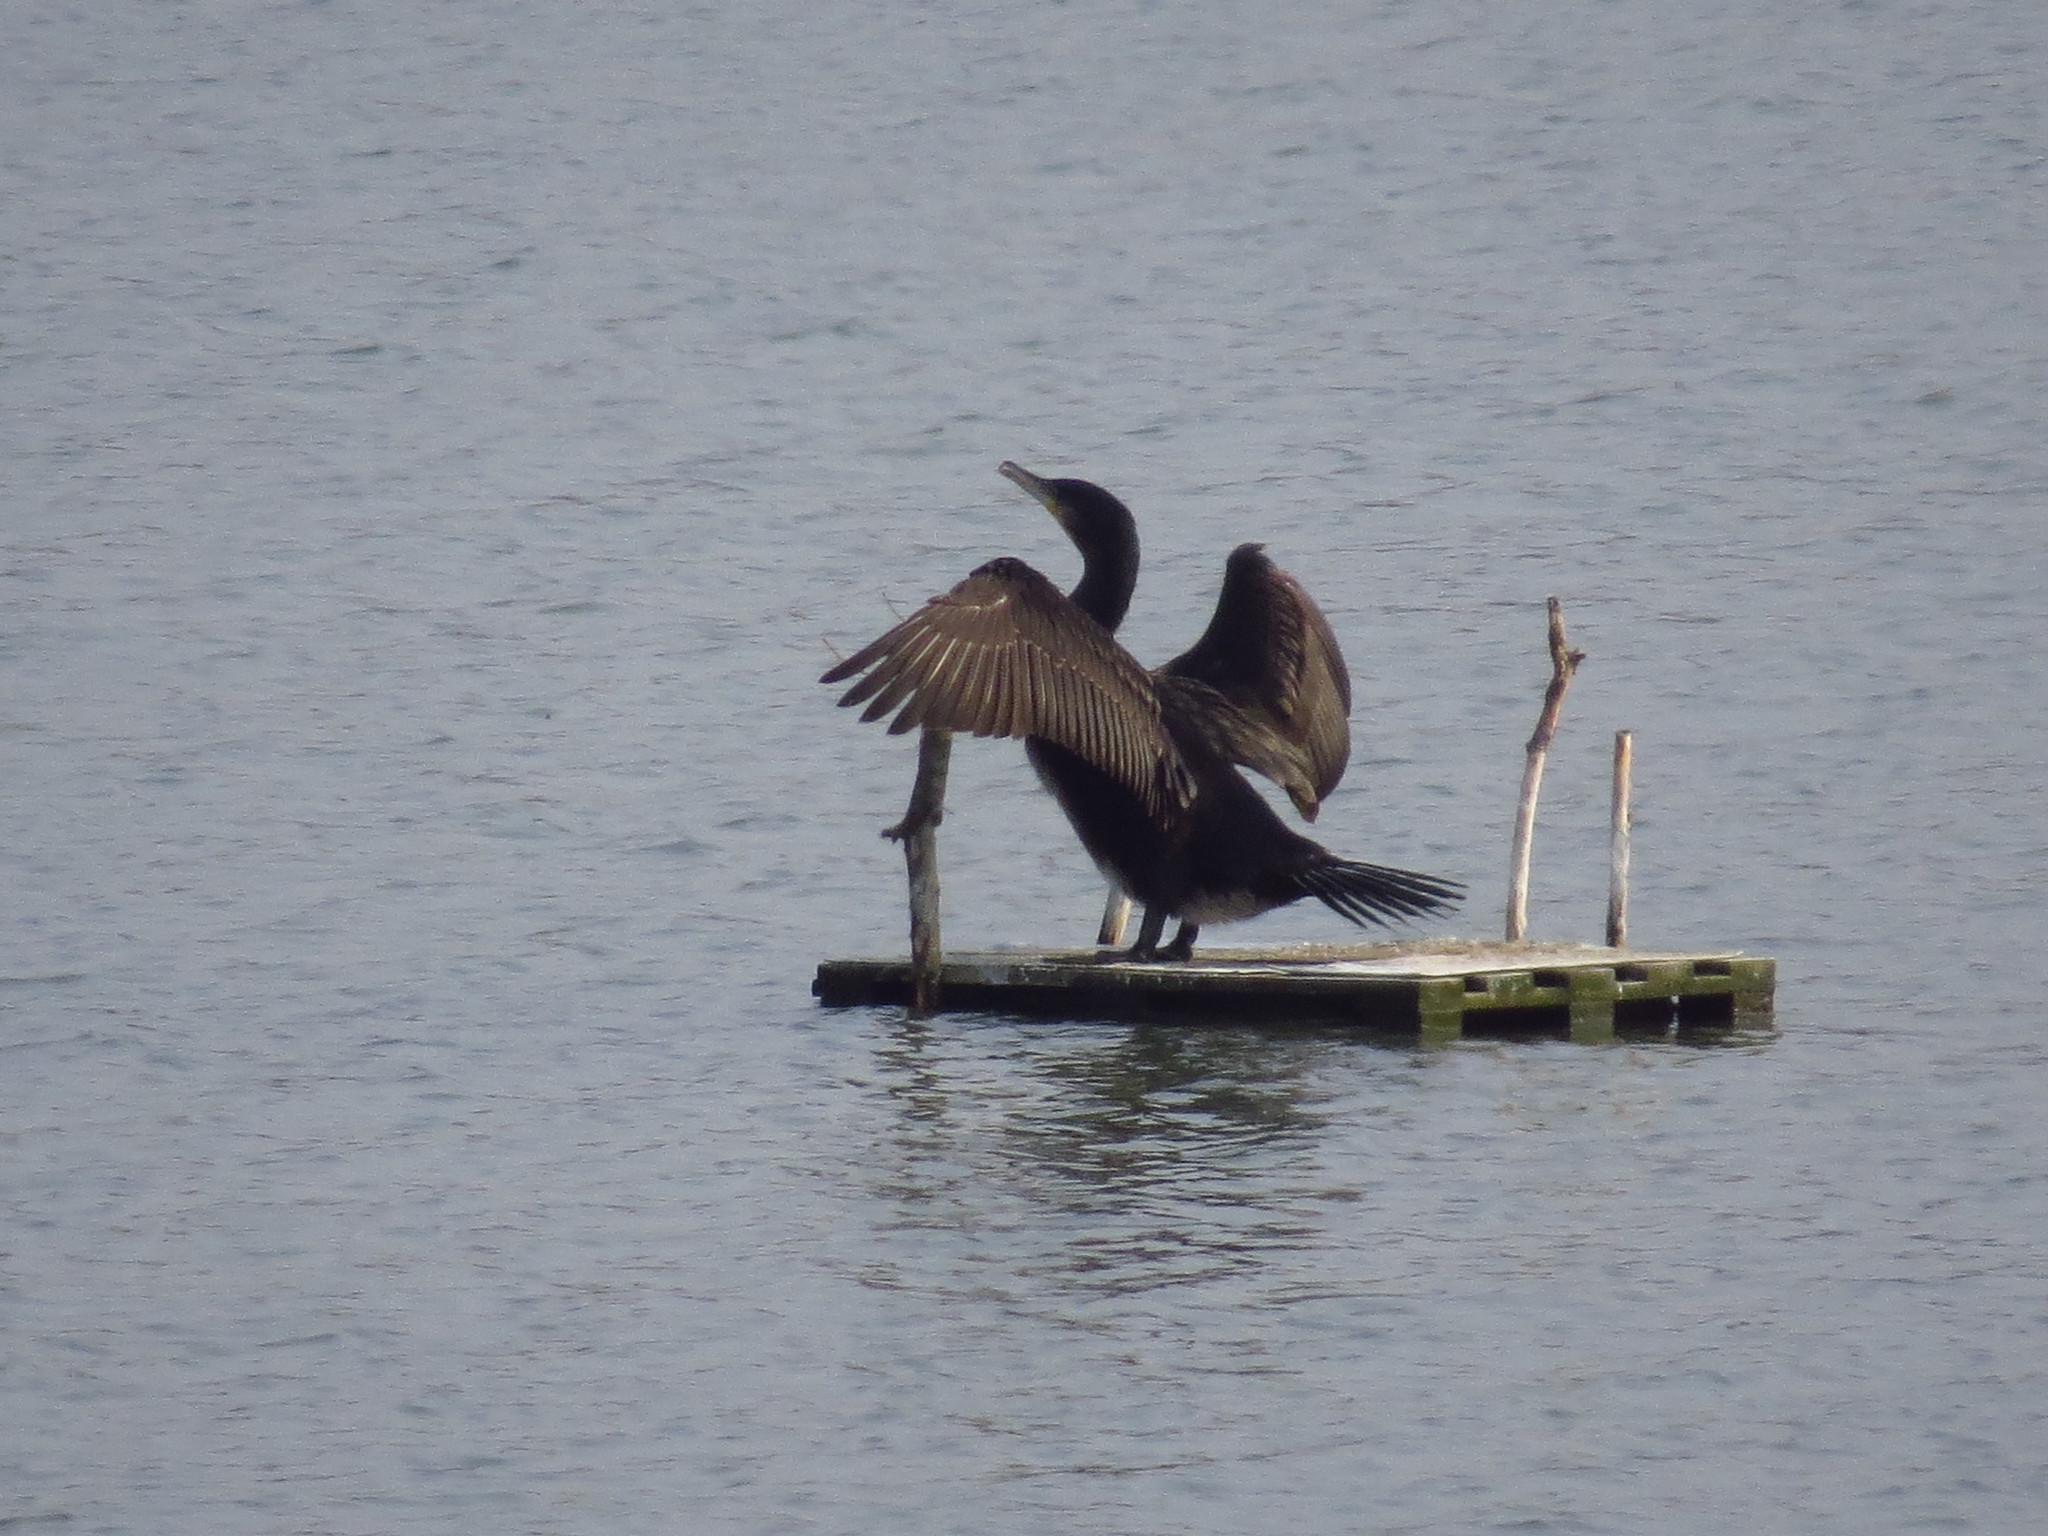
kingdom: Animalia
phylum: Chordata
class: Aves
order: Suliformes
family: Phalacrocoracidae
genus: Phalacrocorax
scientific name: Phalacrocorax carbo
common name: Great cormorant
